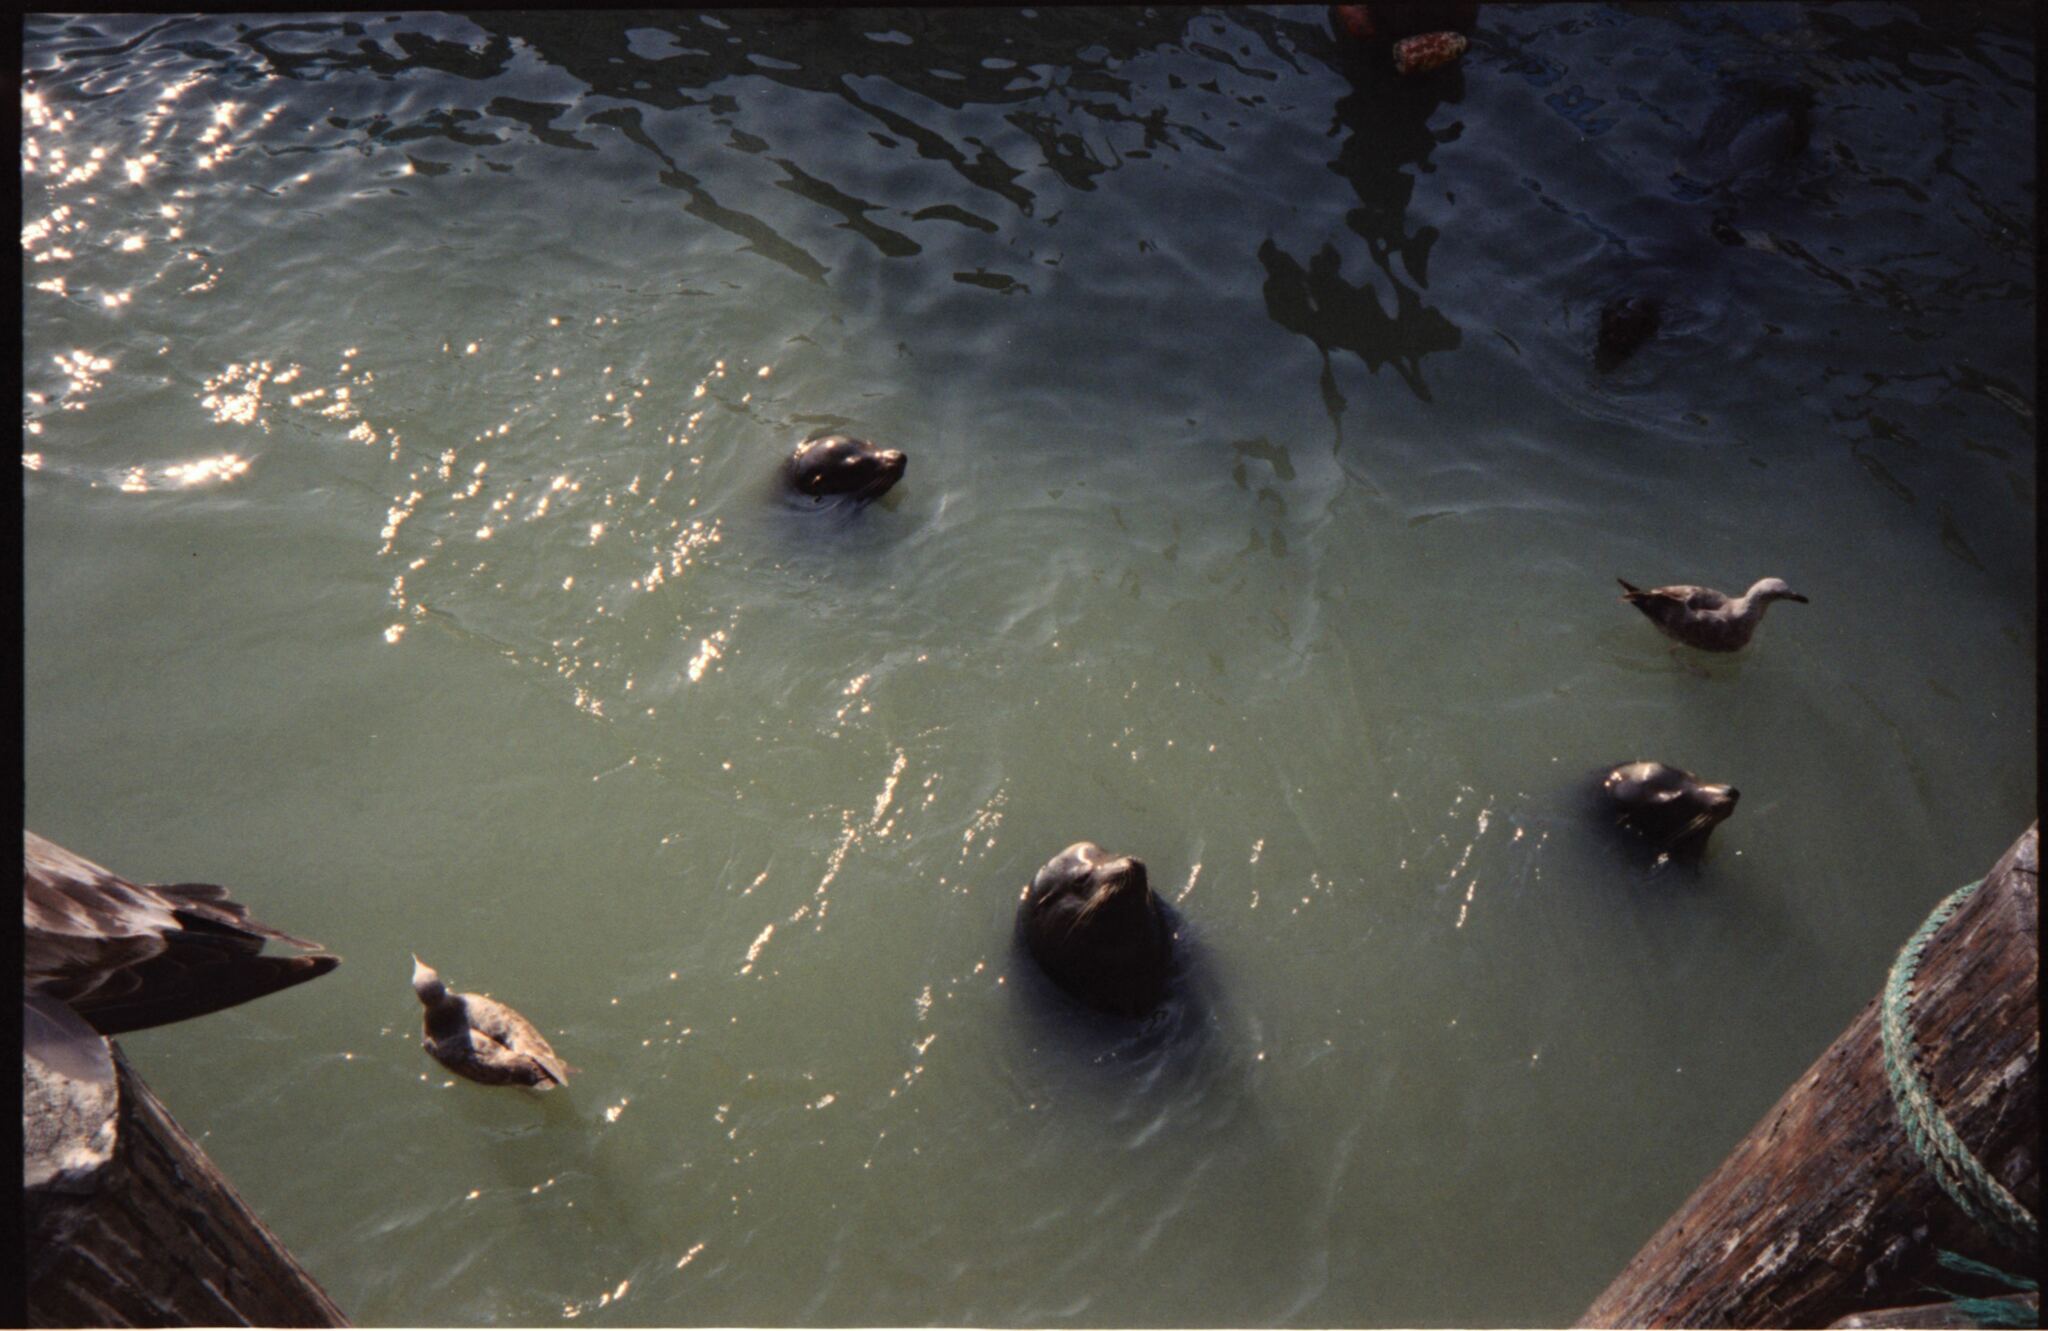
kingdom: Animalia
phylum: Chordata
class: Mammalia
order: Carnivora
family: Otariidae
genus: Zalophus
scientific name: Zalophus californianus
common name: California sea lion
